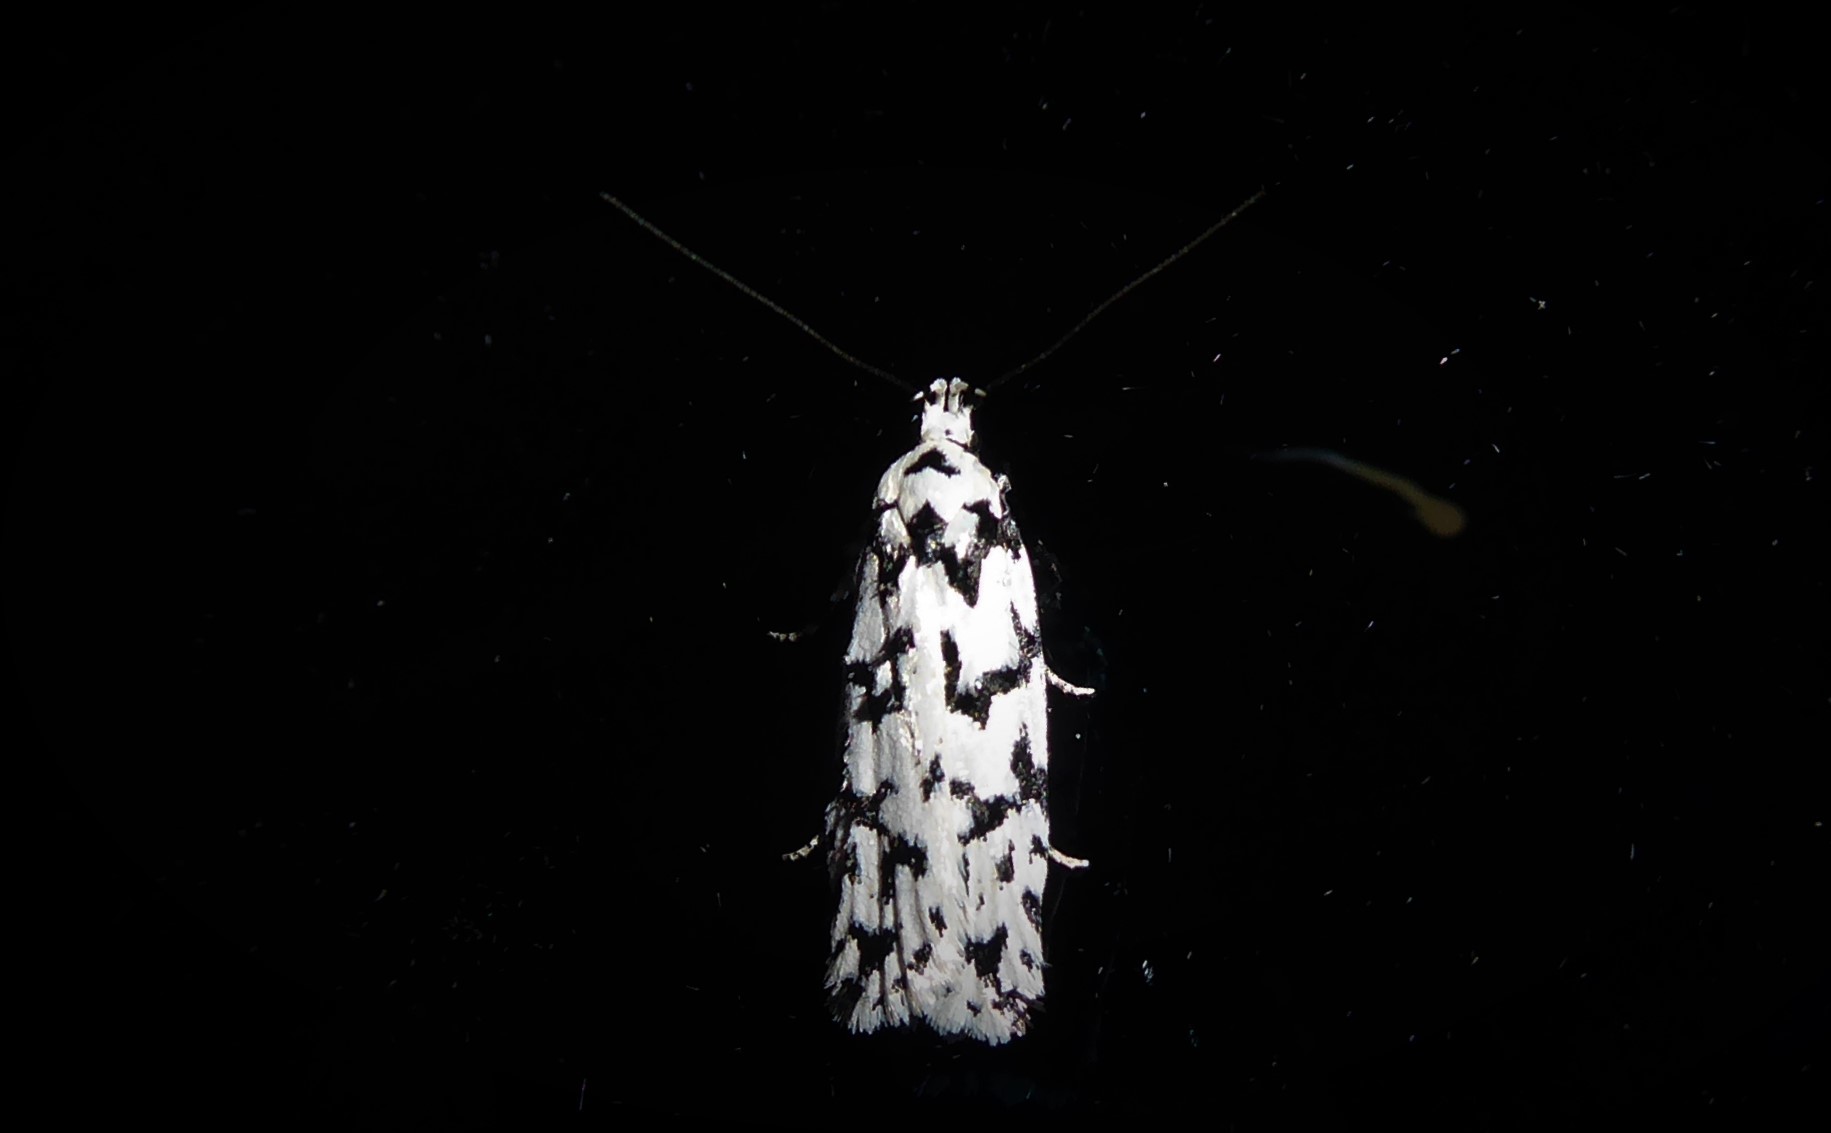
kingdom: Animalia
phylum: Arthropoda
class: Insecta
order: Lepidoptera
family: Oecophoridae
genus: Izatha
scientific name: Izatha katadiktya
